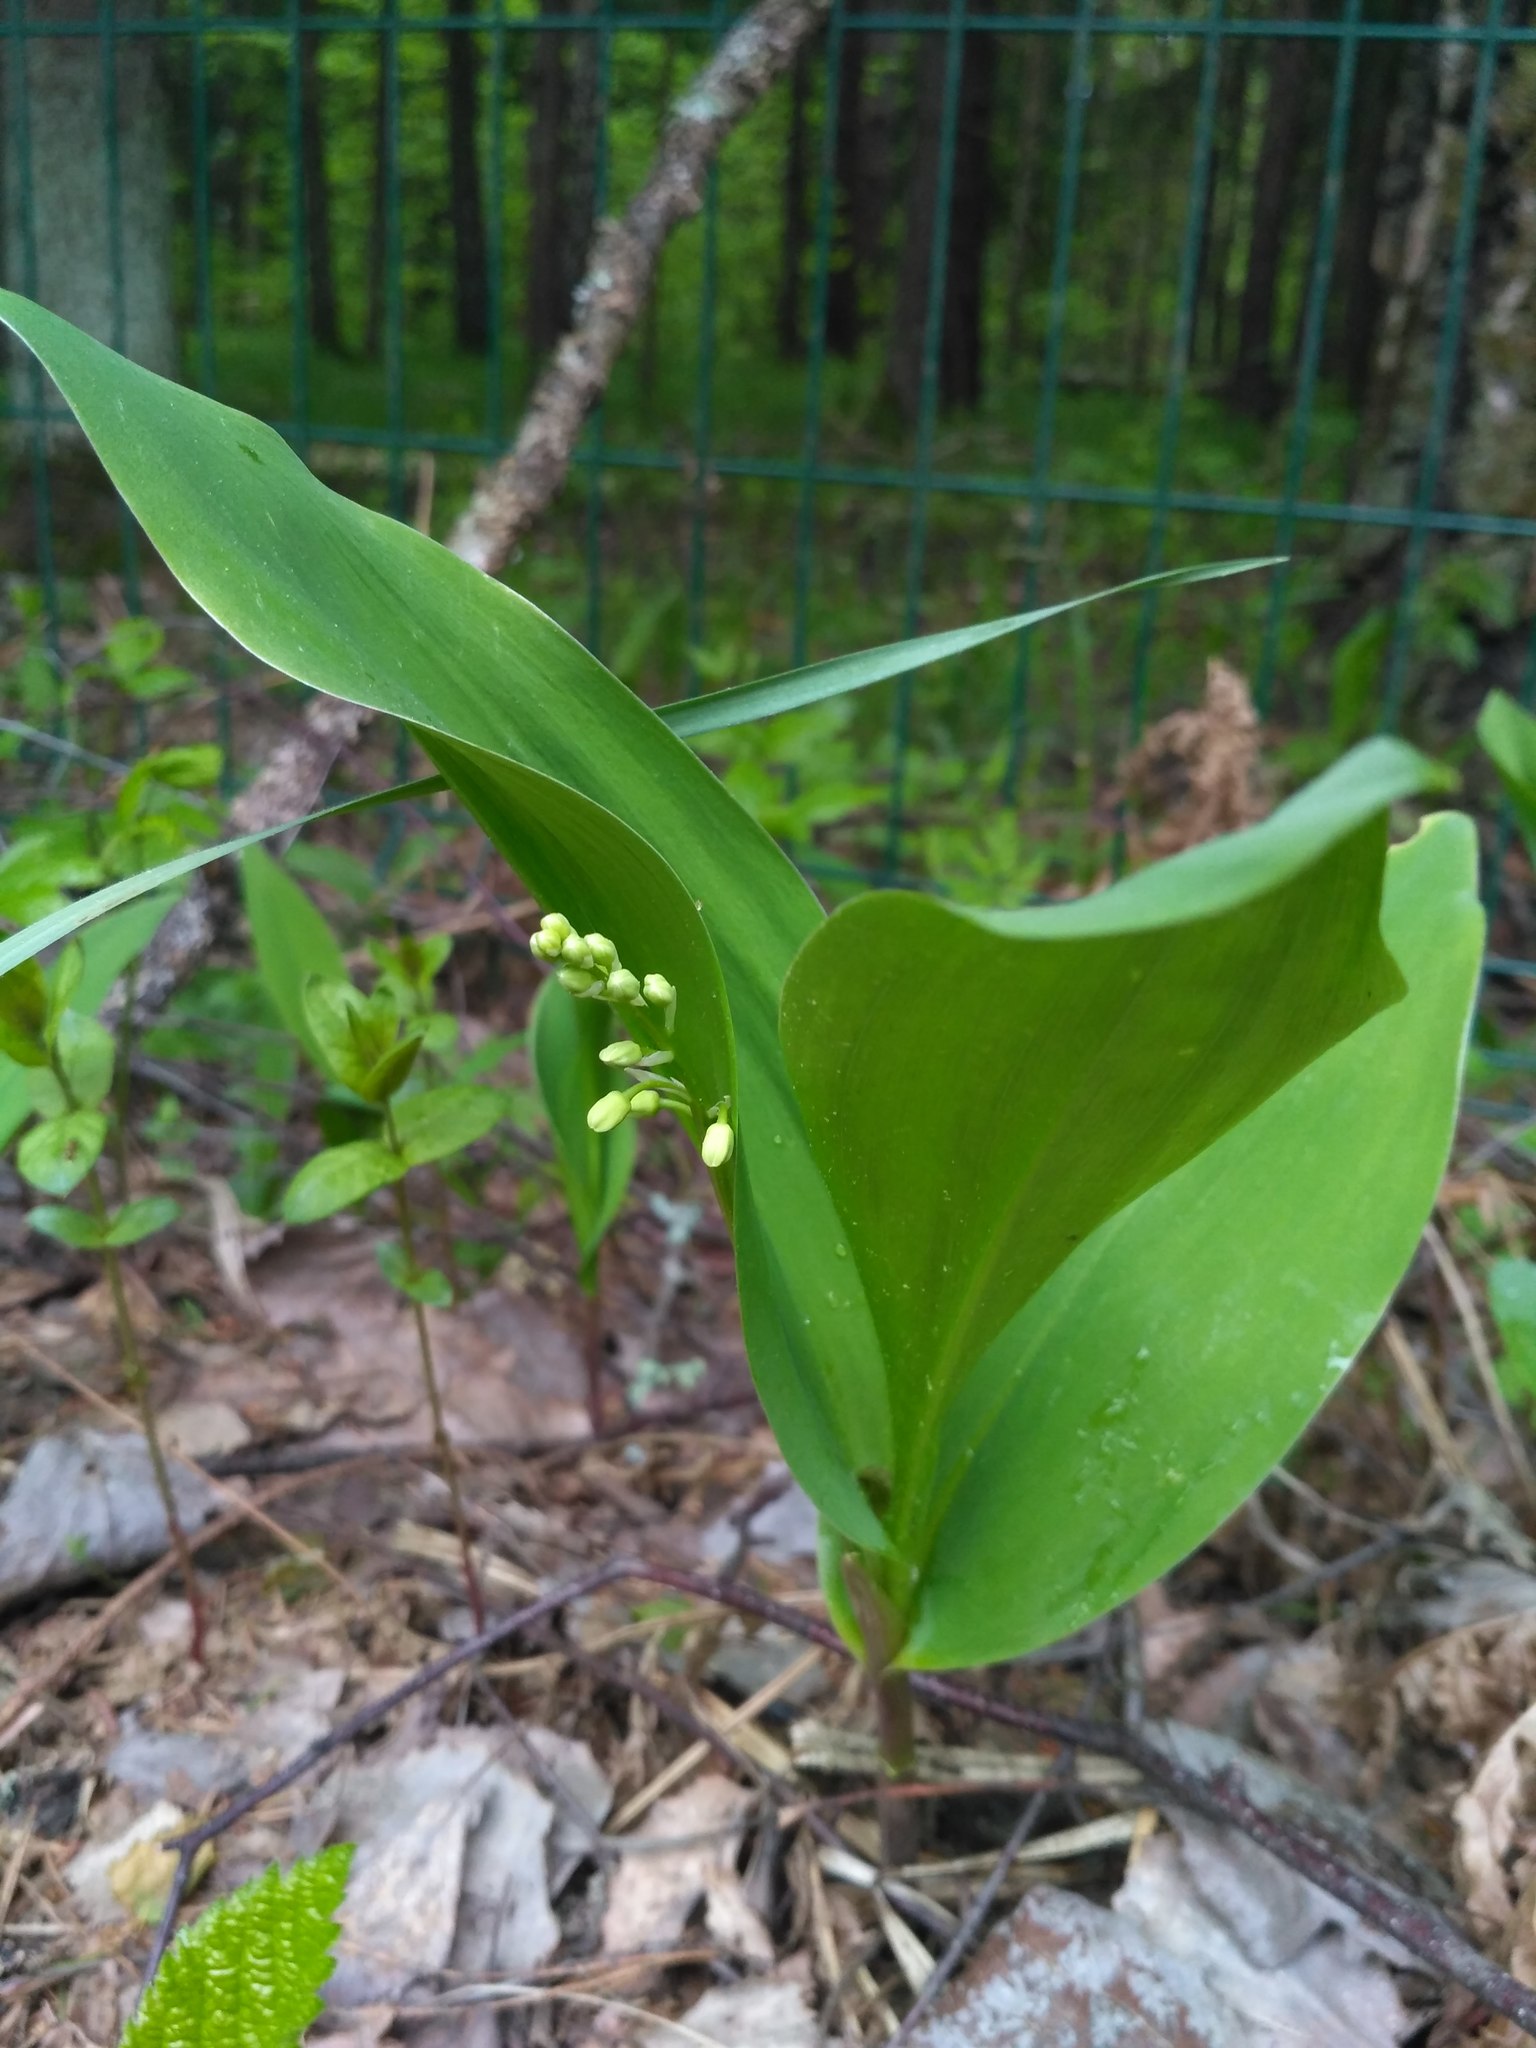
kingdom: Plantae
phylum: Tracheophyta
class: Liliopsida
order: Asparagales
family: Asparagaceae
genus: Convallaria
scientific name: Convallaria majalis
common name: Lily-of-the-valley
